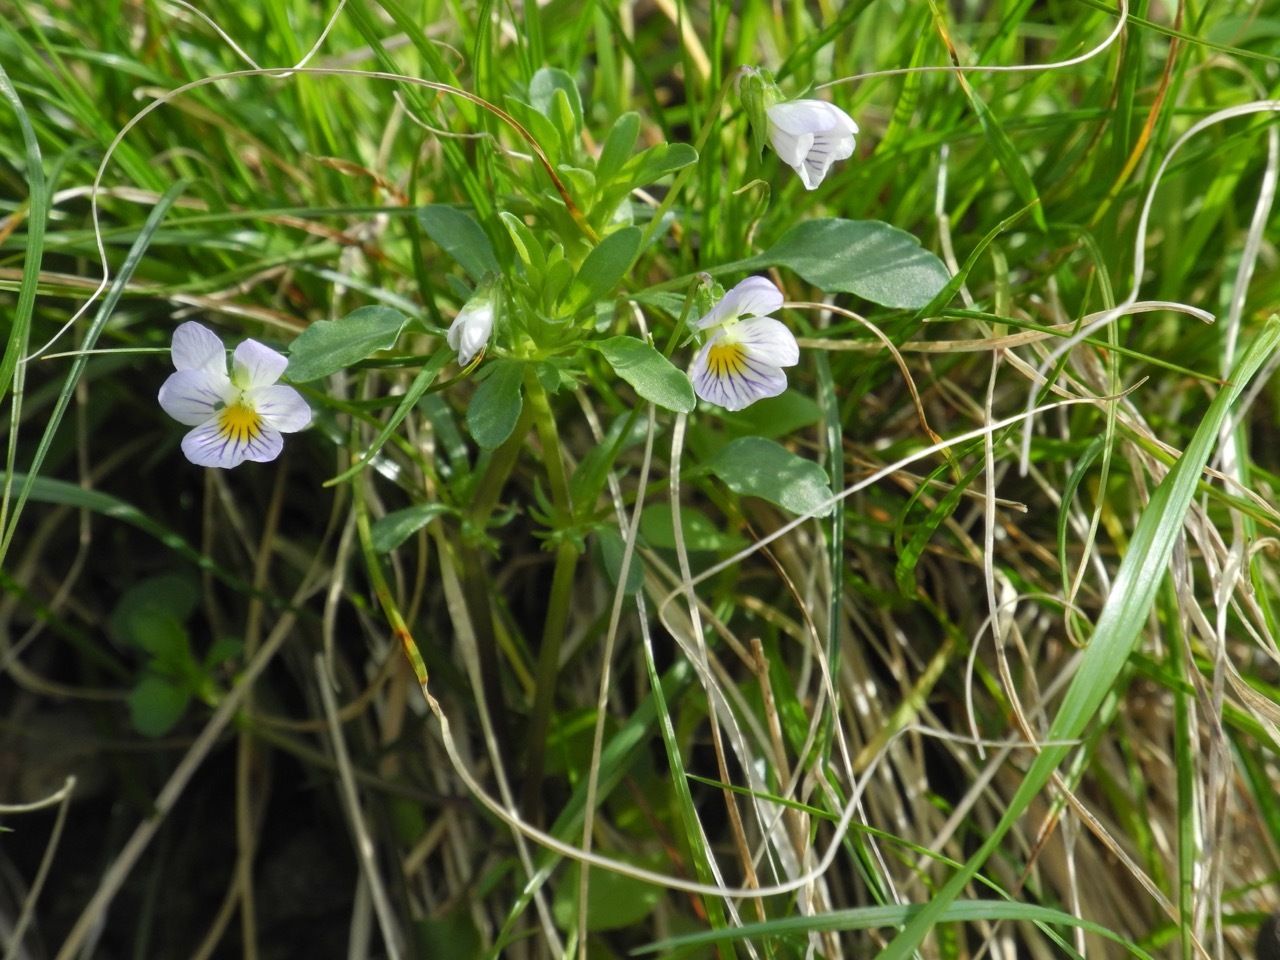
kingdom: Plantae
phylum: Tracheophyta
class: Magnoliopsida
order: Malpighiales
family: Violaceae
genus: Viola
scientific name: Viola rafinesquei
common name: American field pansy
